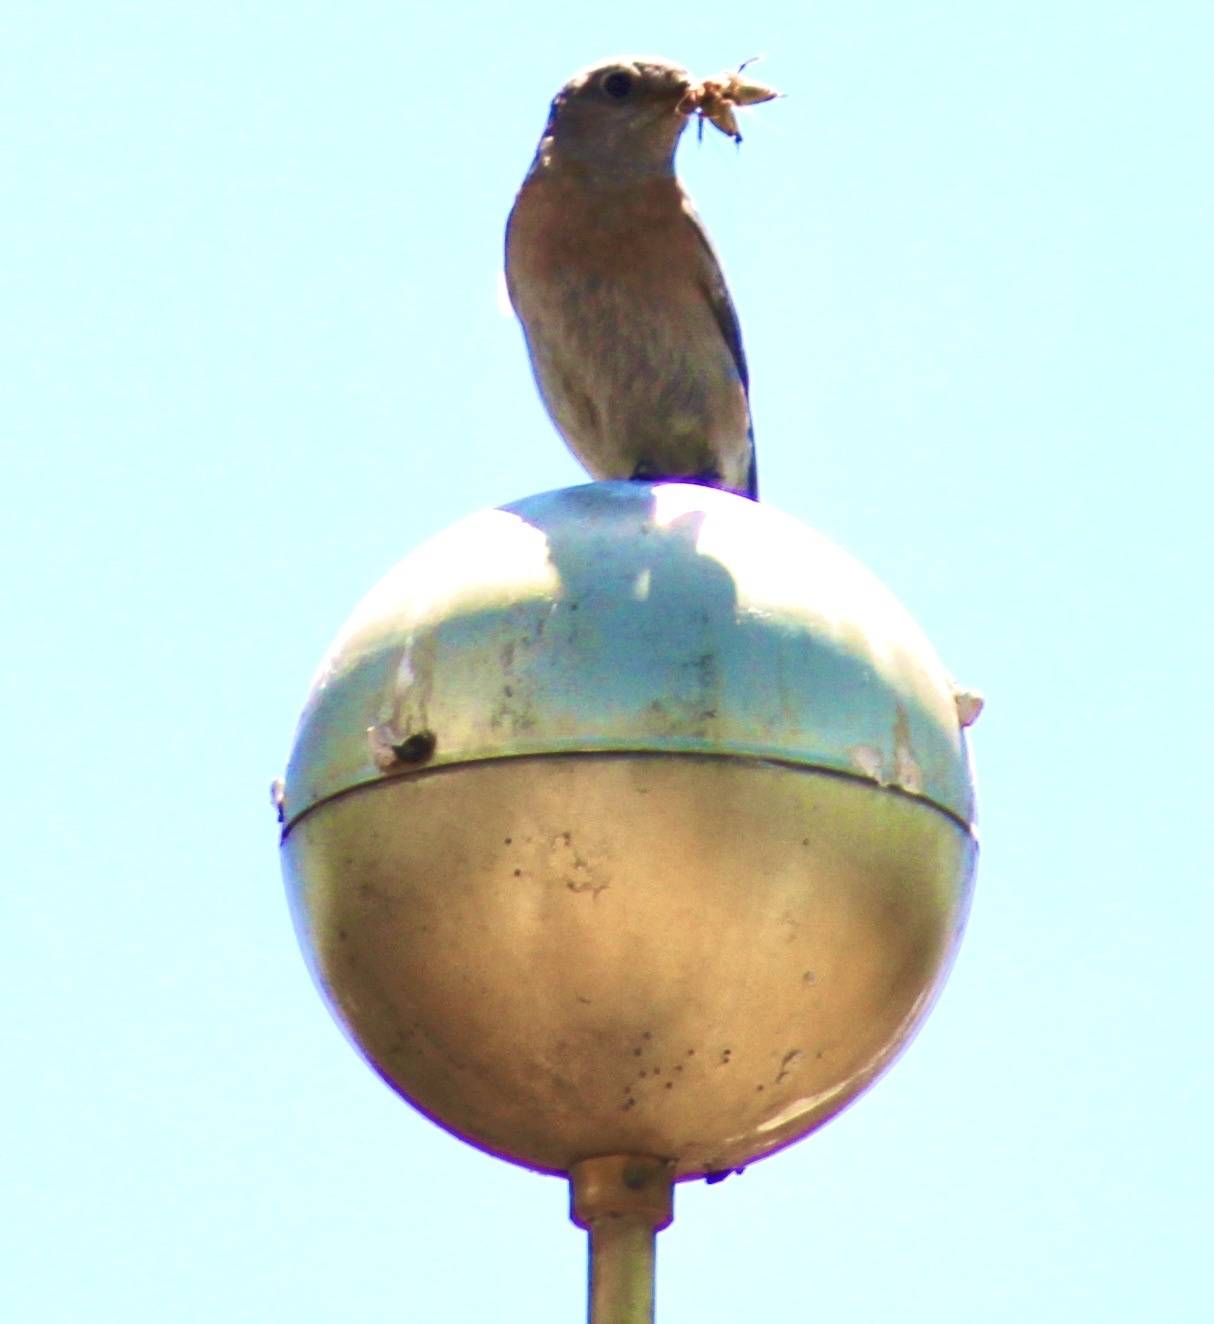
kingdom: Animalia
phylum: Chordata
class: Aves
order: Passeriformes
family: Turdidae
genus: Sialia
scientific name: Sialia mexicana
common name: Western bluebird
